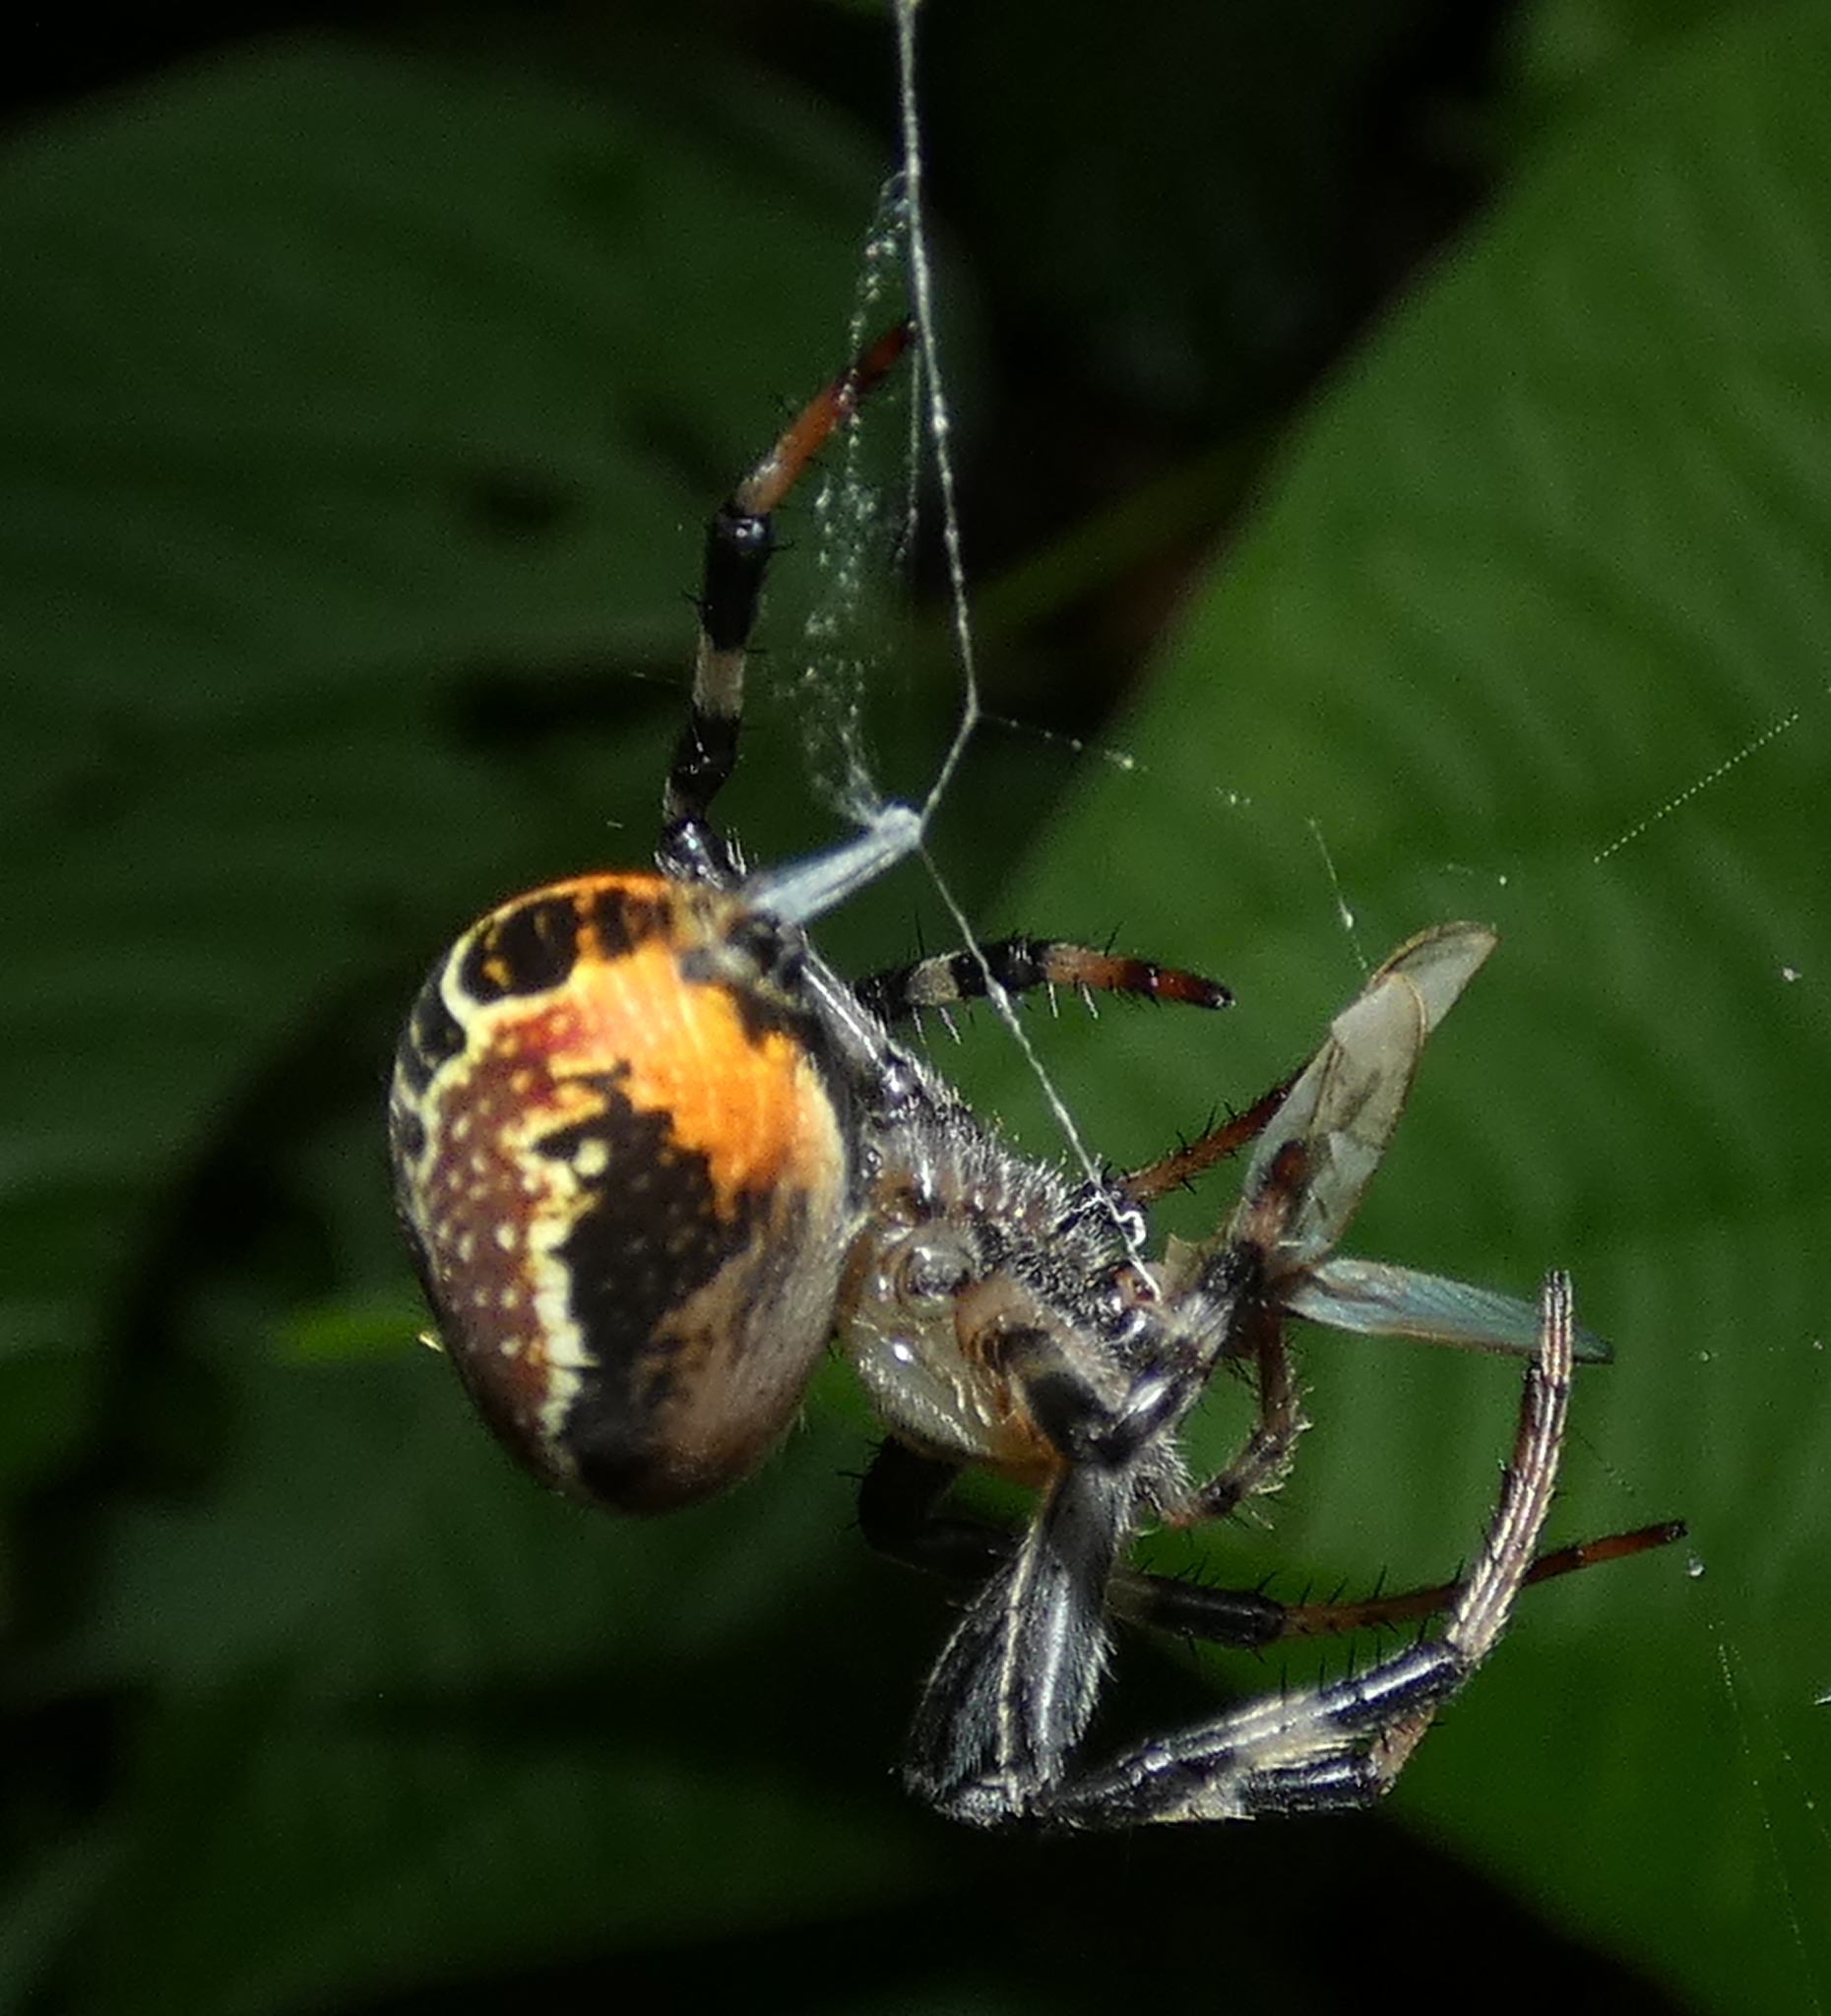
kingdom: Animalia
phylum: Arthropoda
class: Arachnida
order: Araneae
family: Araneidae
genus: Araneus
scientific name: Araneus venatrix
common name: Orb weavers
